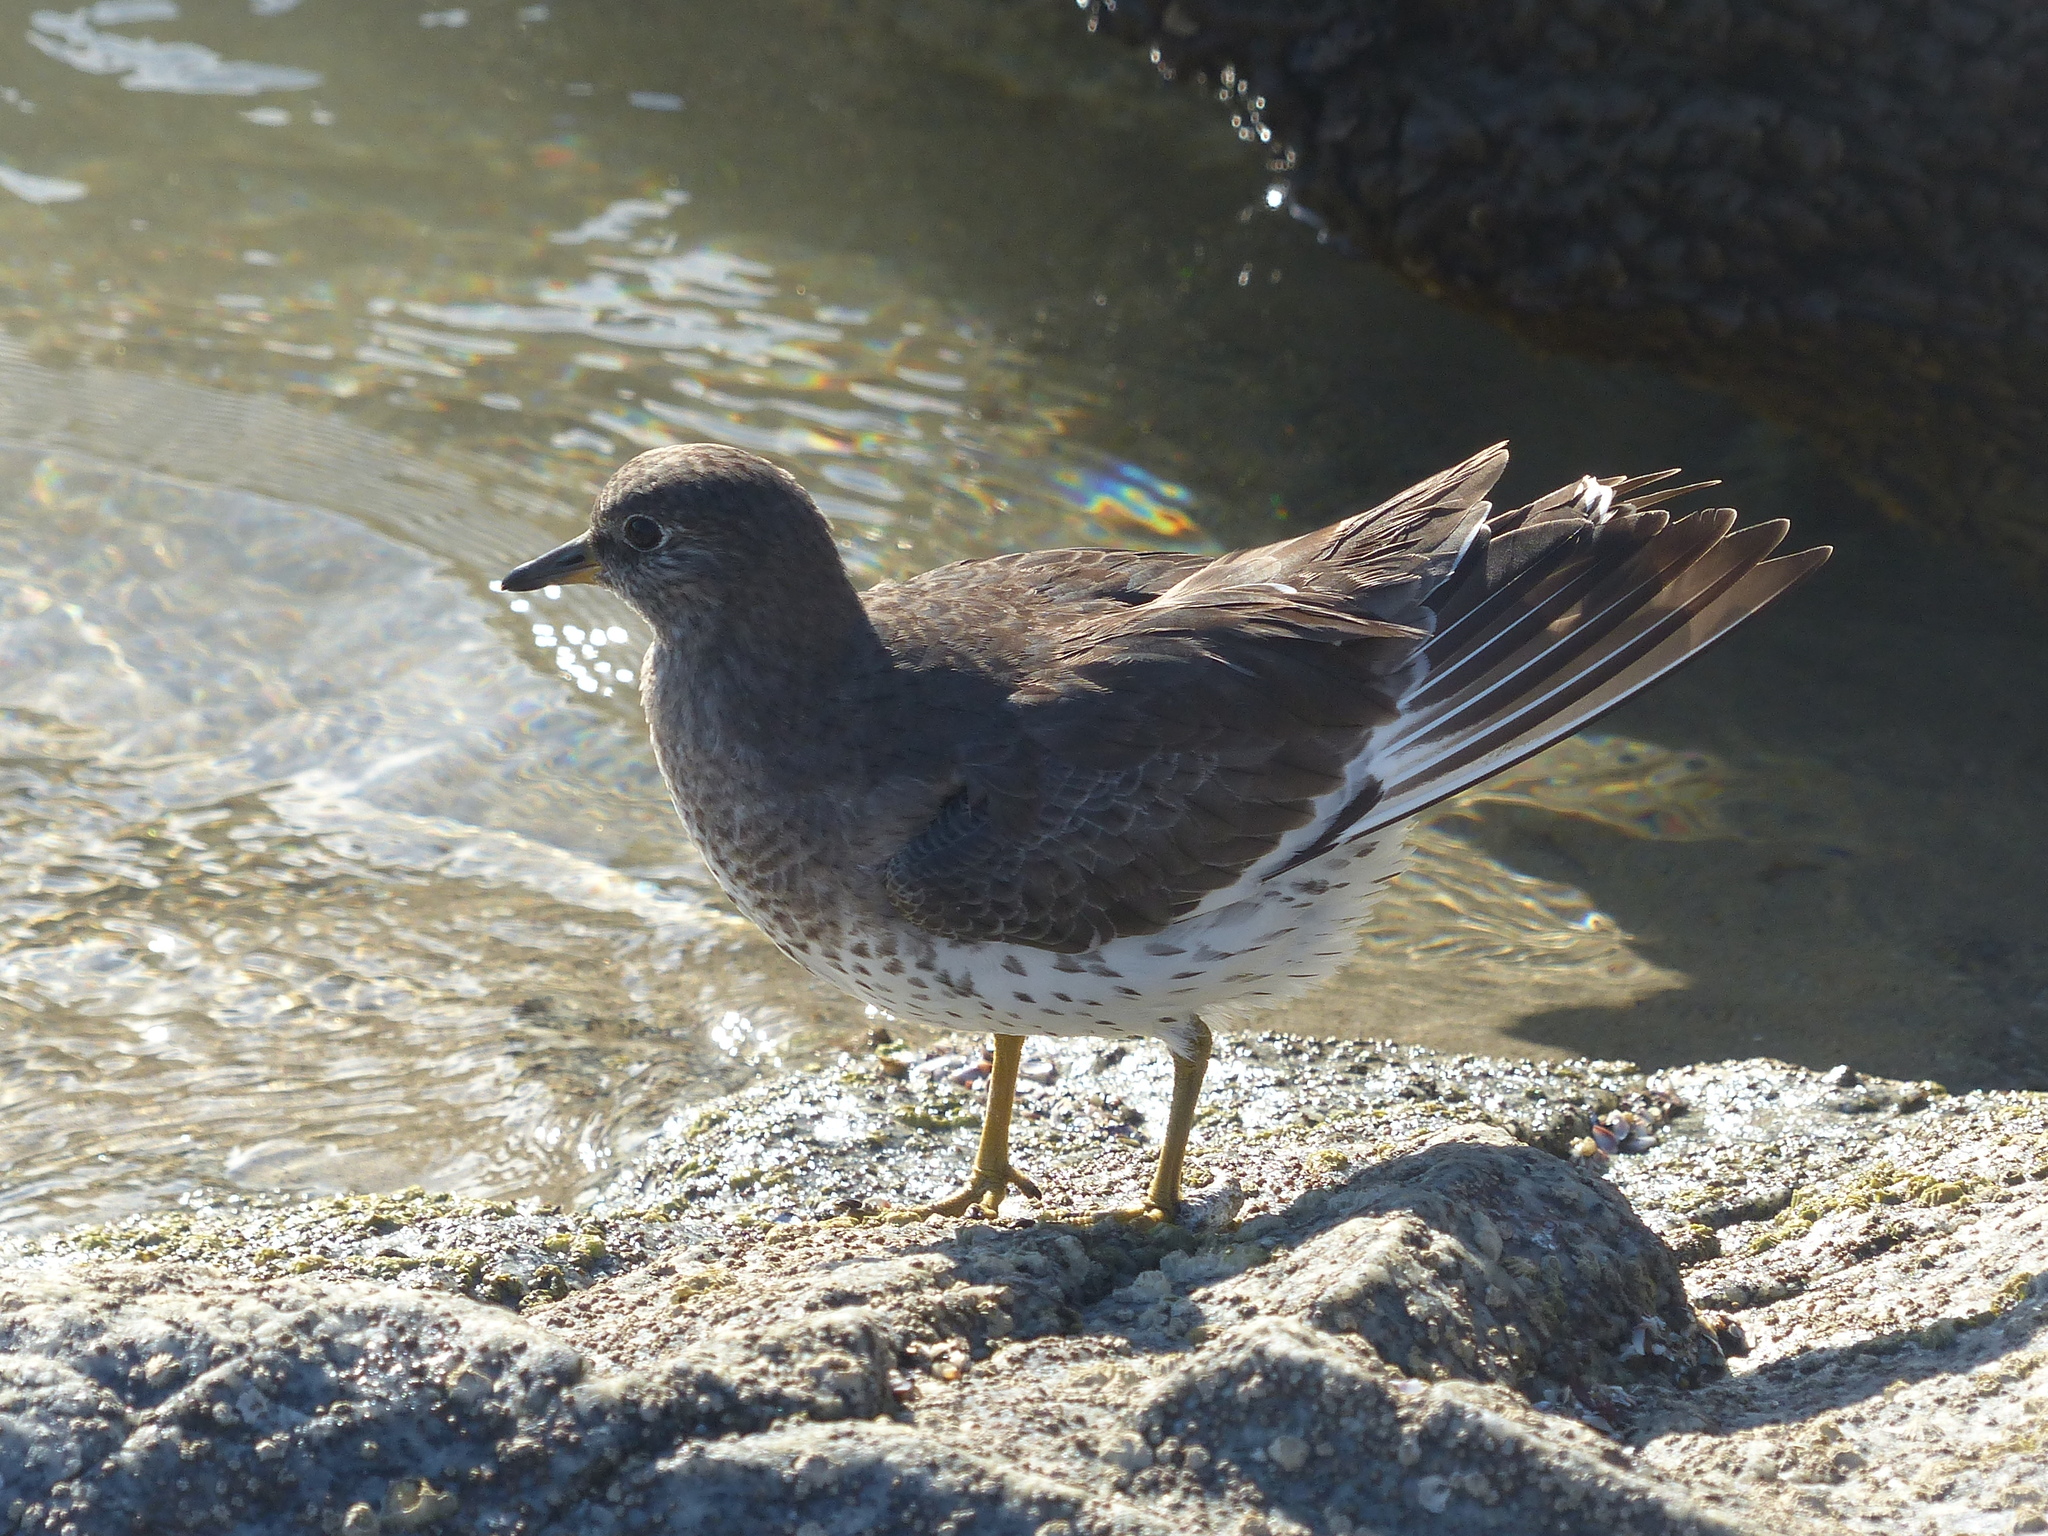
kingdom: Animalia
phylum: Chordata
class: Aves
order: Charadriiformes
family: Scolopacidae
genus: Calidris
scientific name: Calidris virgata
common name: Surfbird
